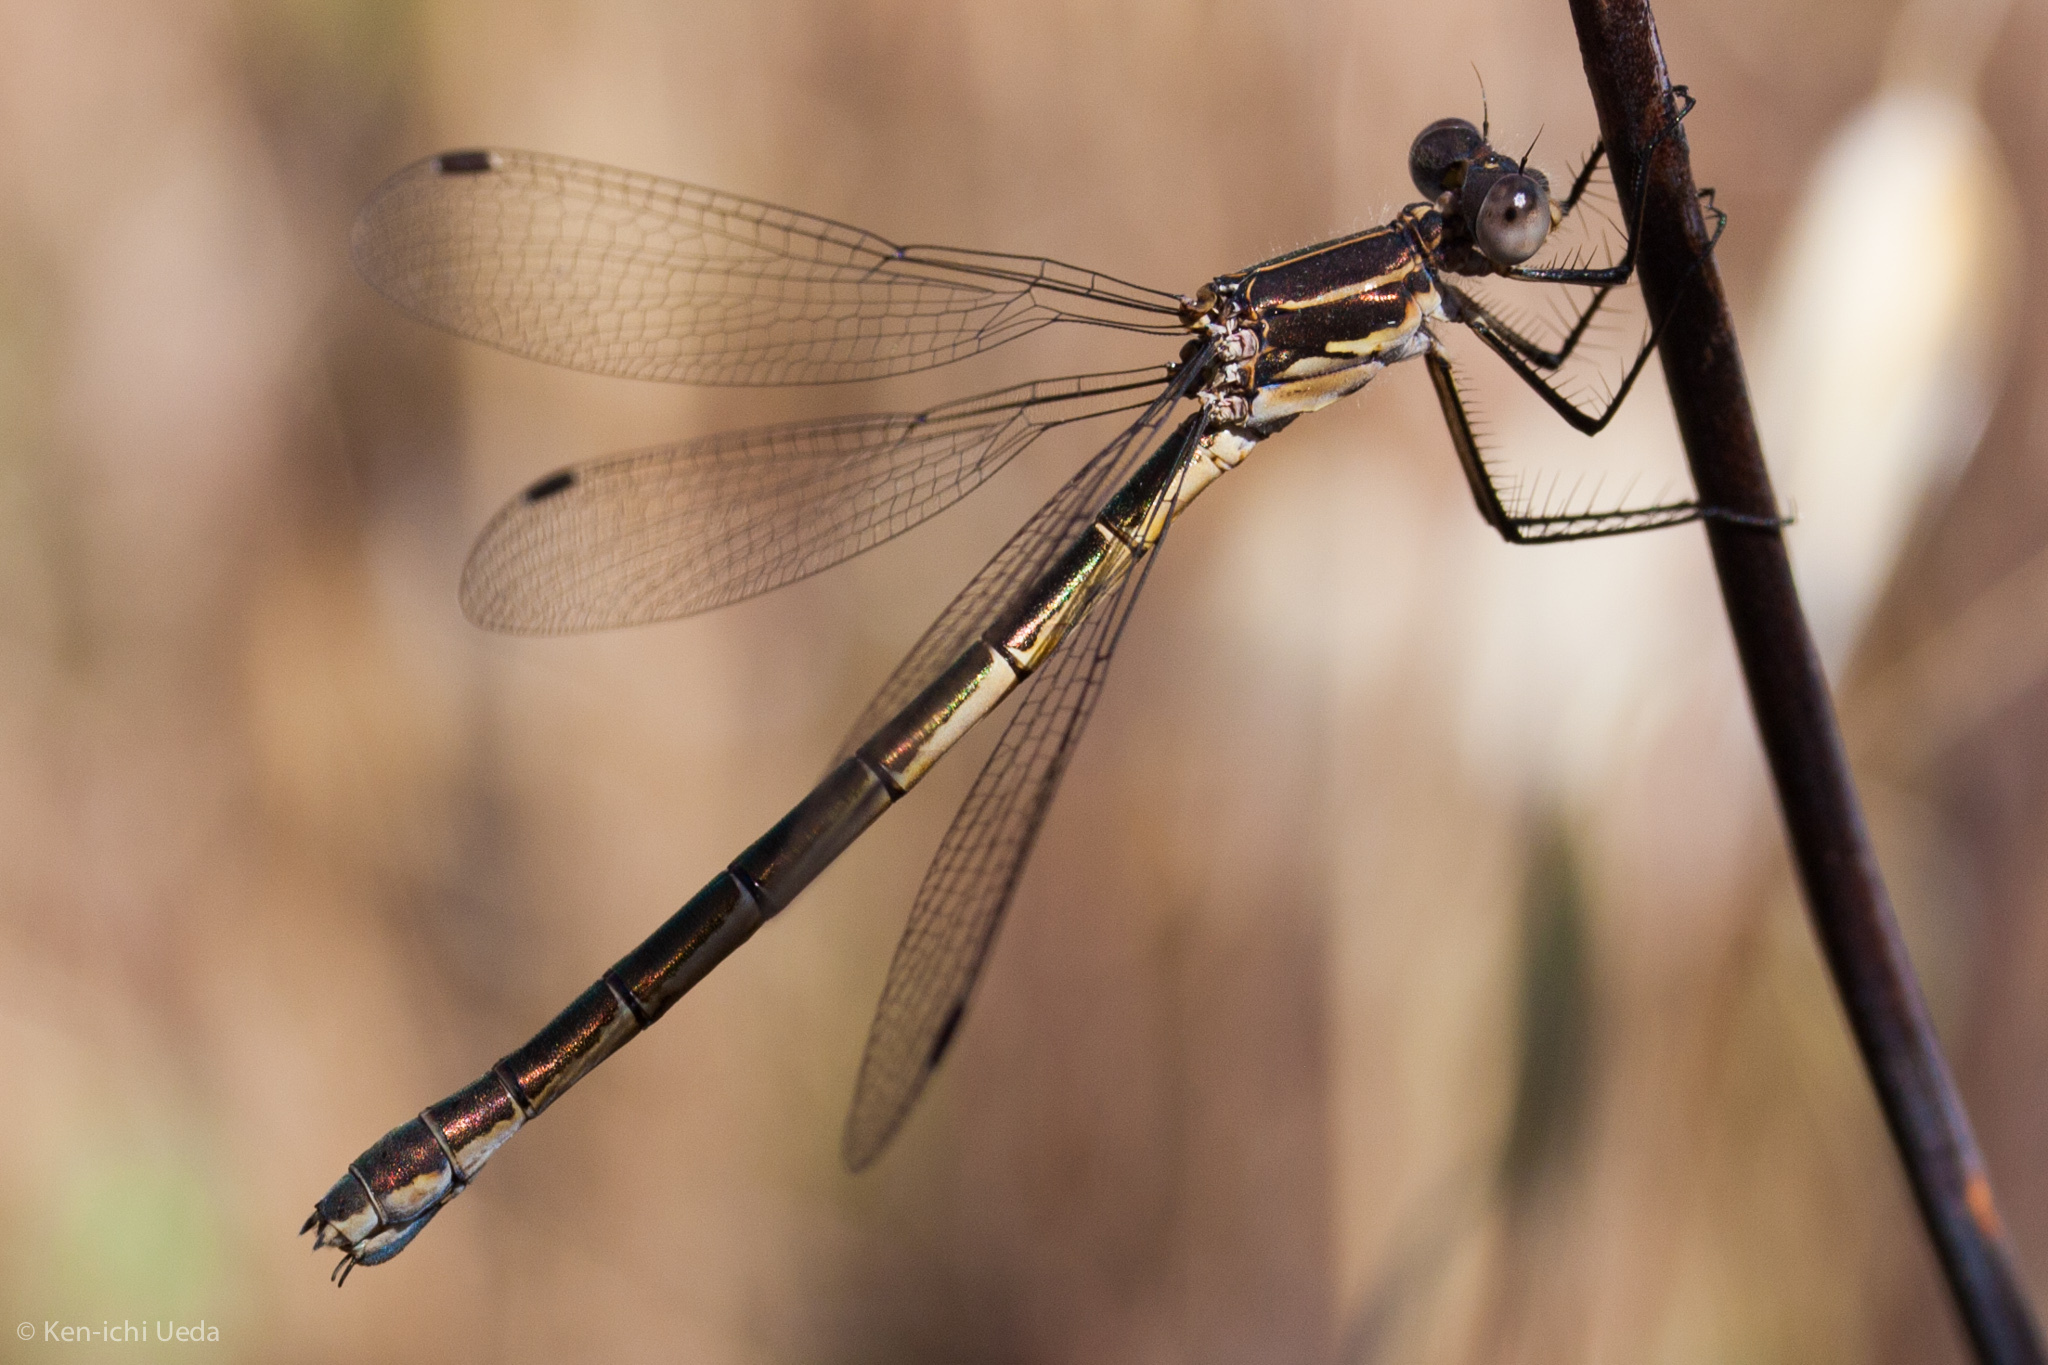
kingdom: Animalia
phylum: Arthropoda
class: Insecta
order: Odonata
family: Lestidae
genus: Lestes
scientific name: Lestes stultus
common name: Black spreadwing
